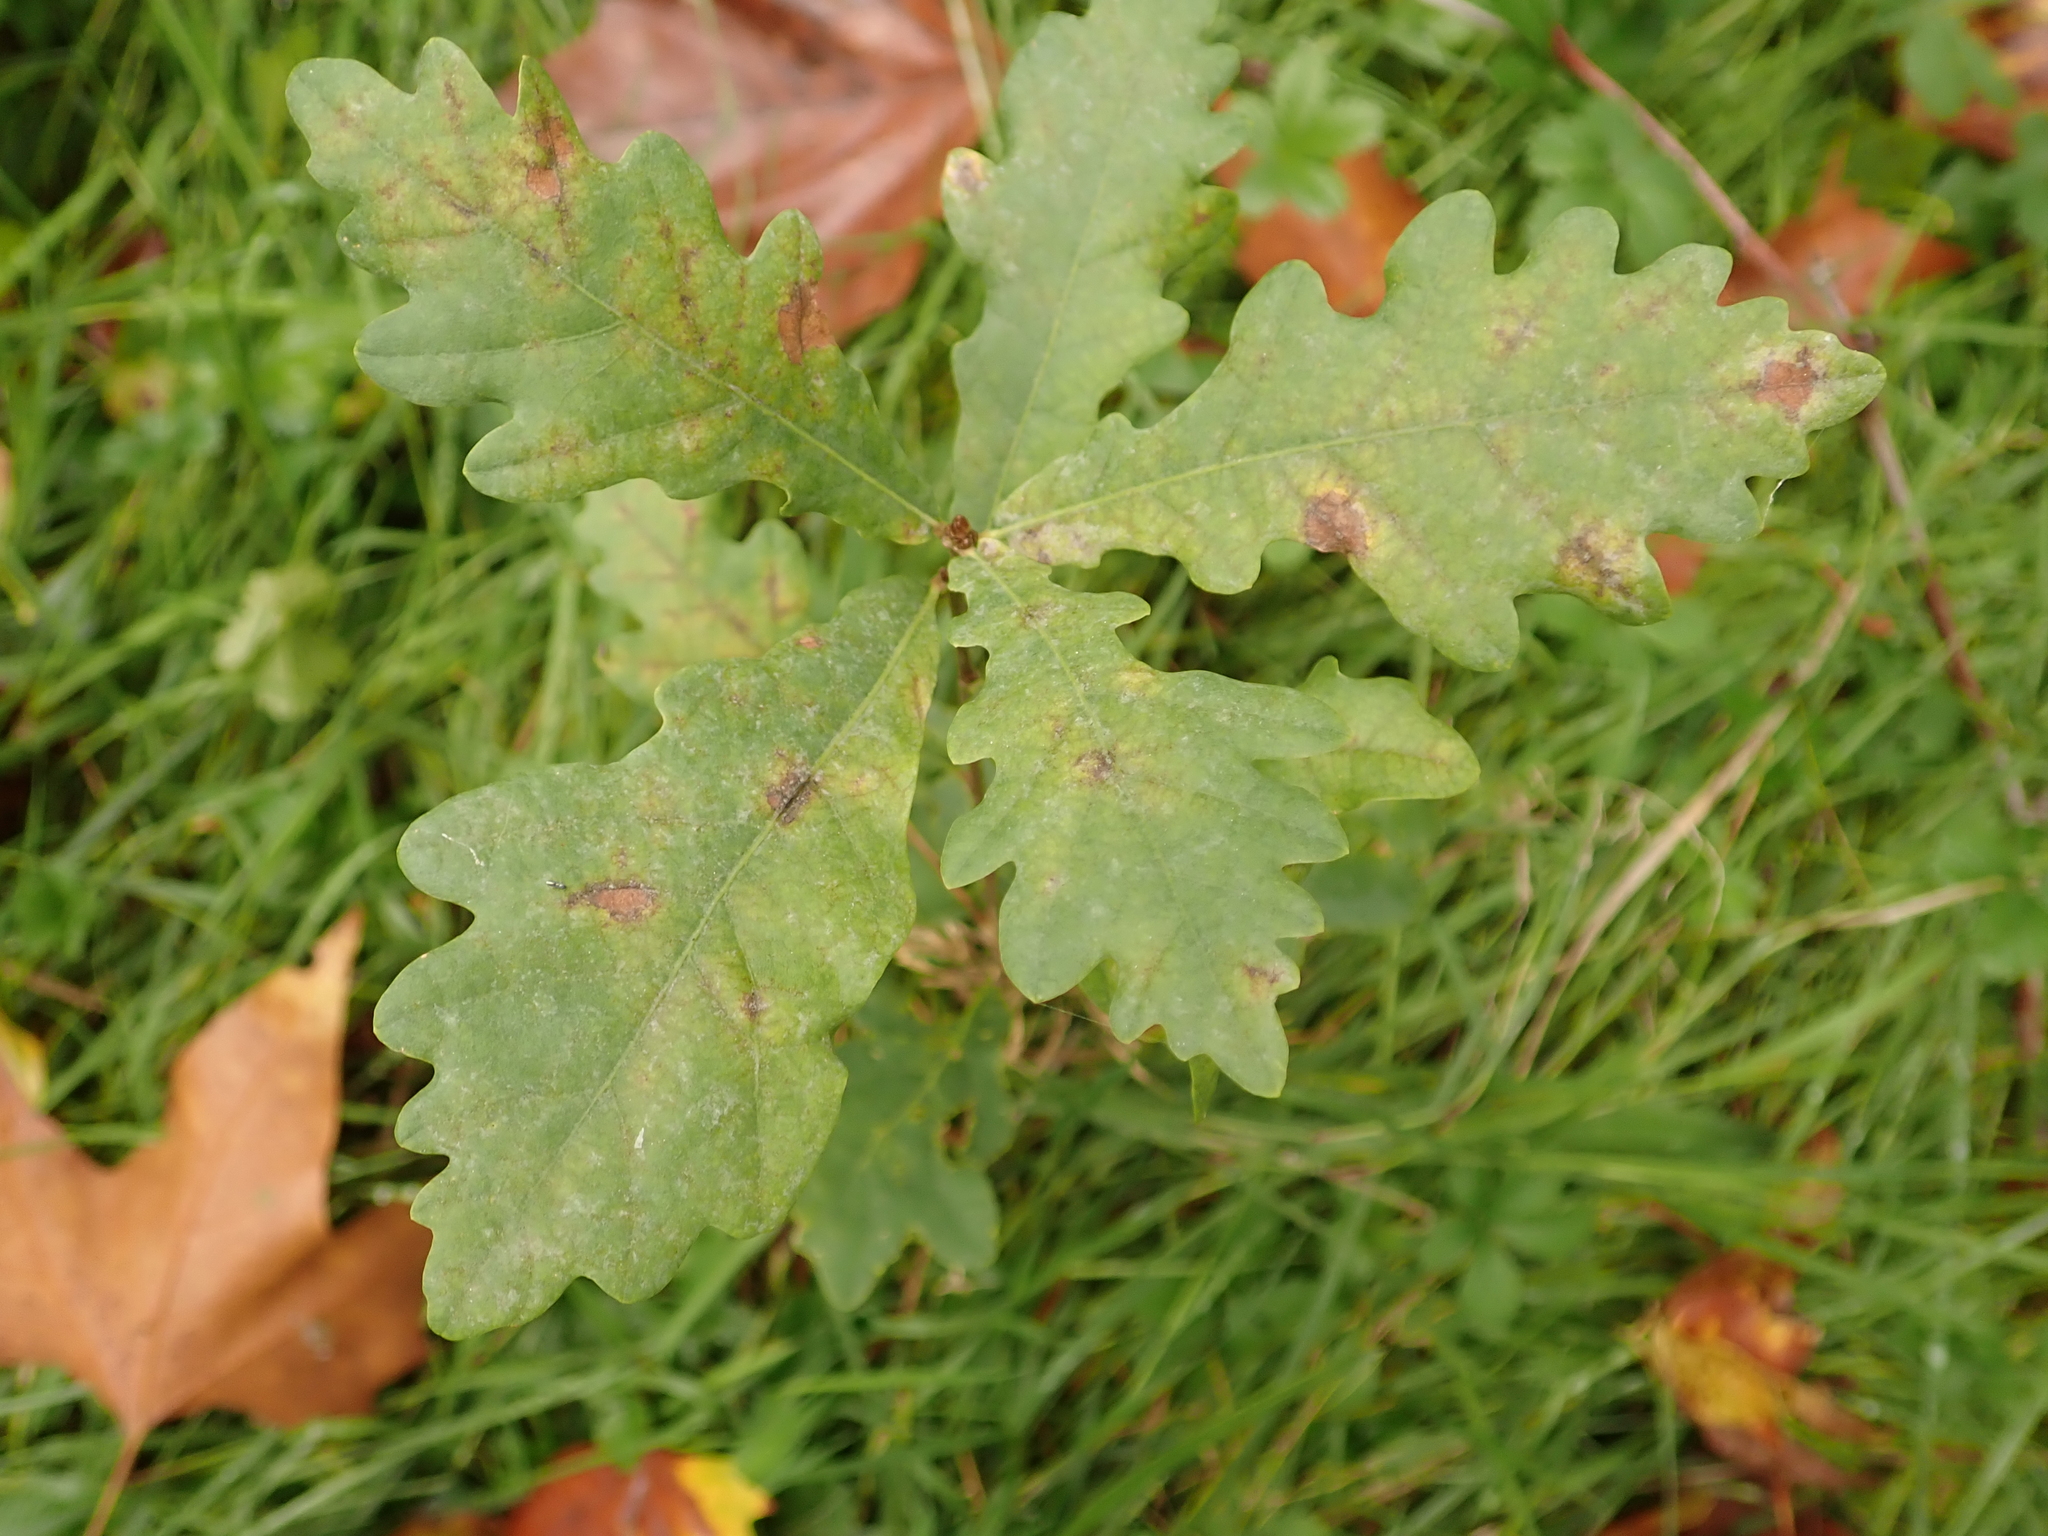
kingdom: Plantae
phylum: Tracheophyta
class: Magnoliopsida
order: Fagales
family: Fagaceae
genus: Quercus
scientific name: Quercus robur
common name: Pedunculate oak
